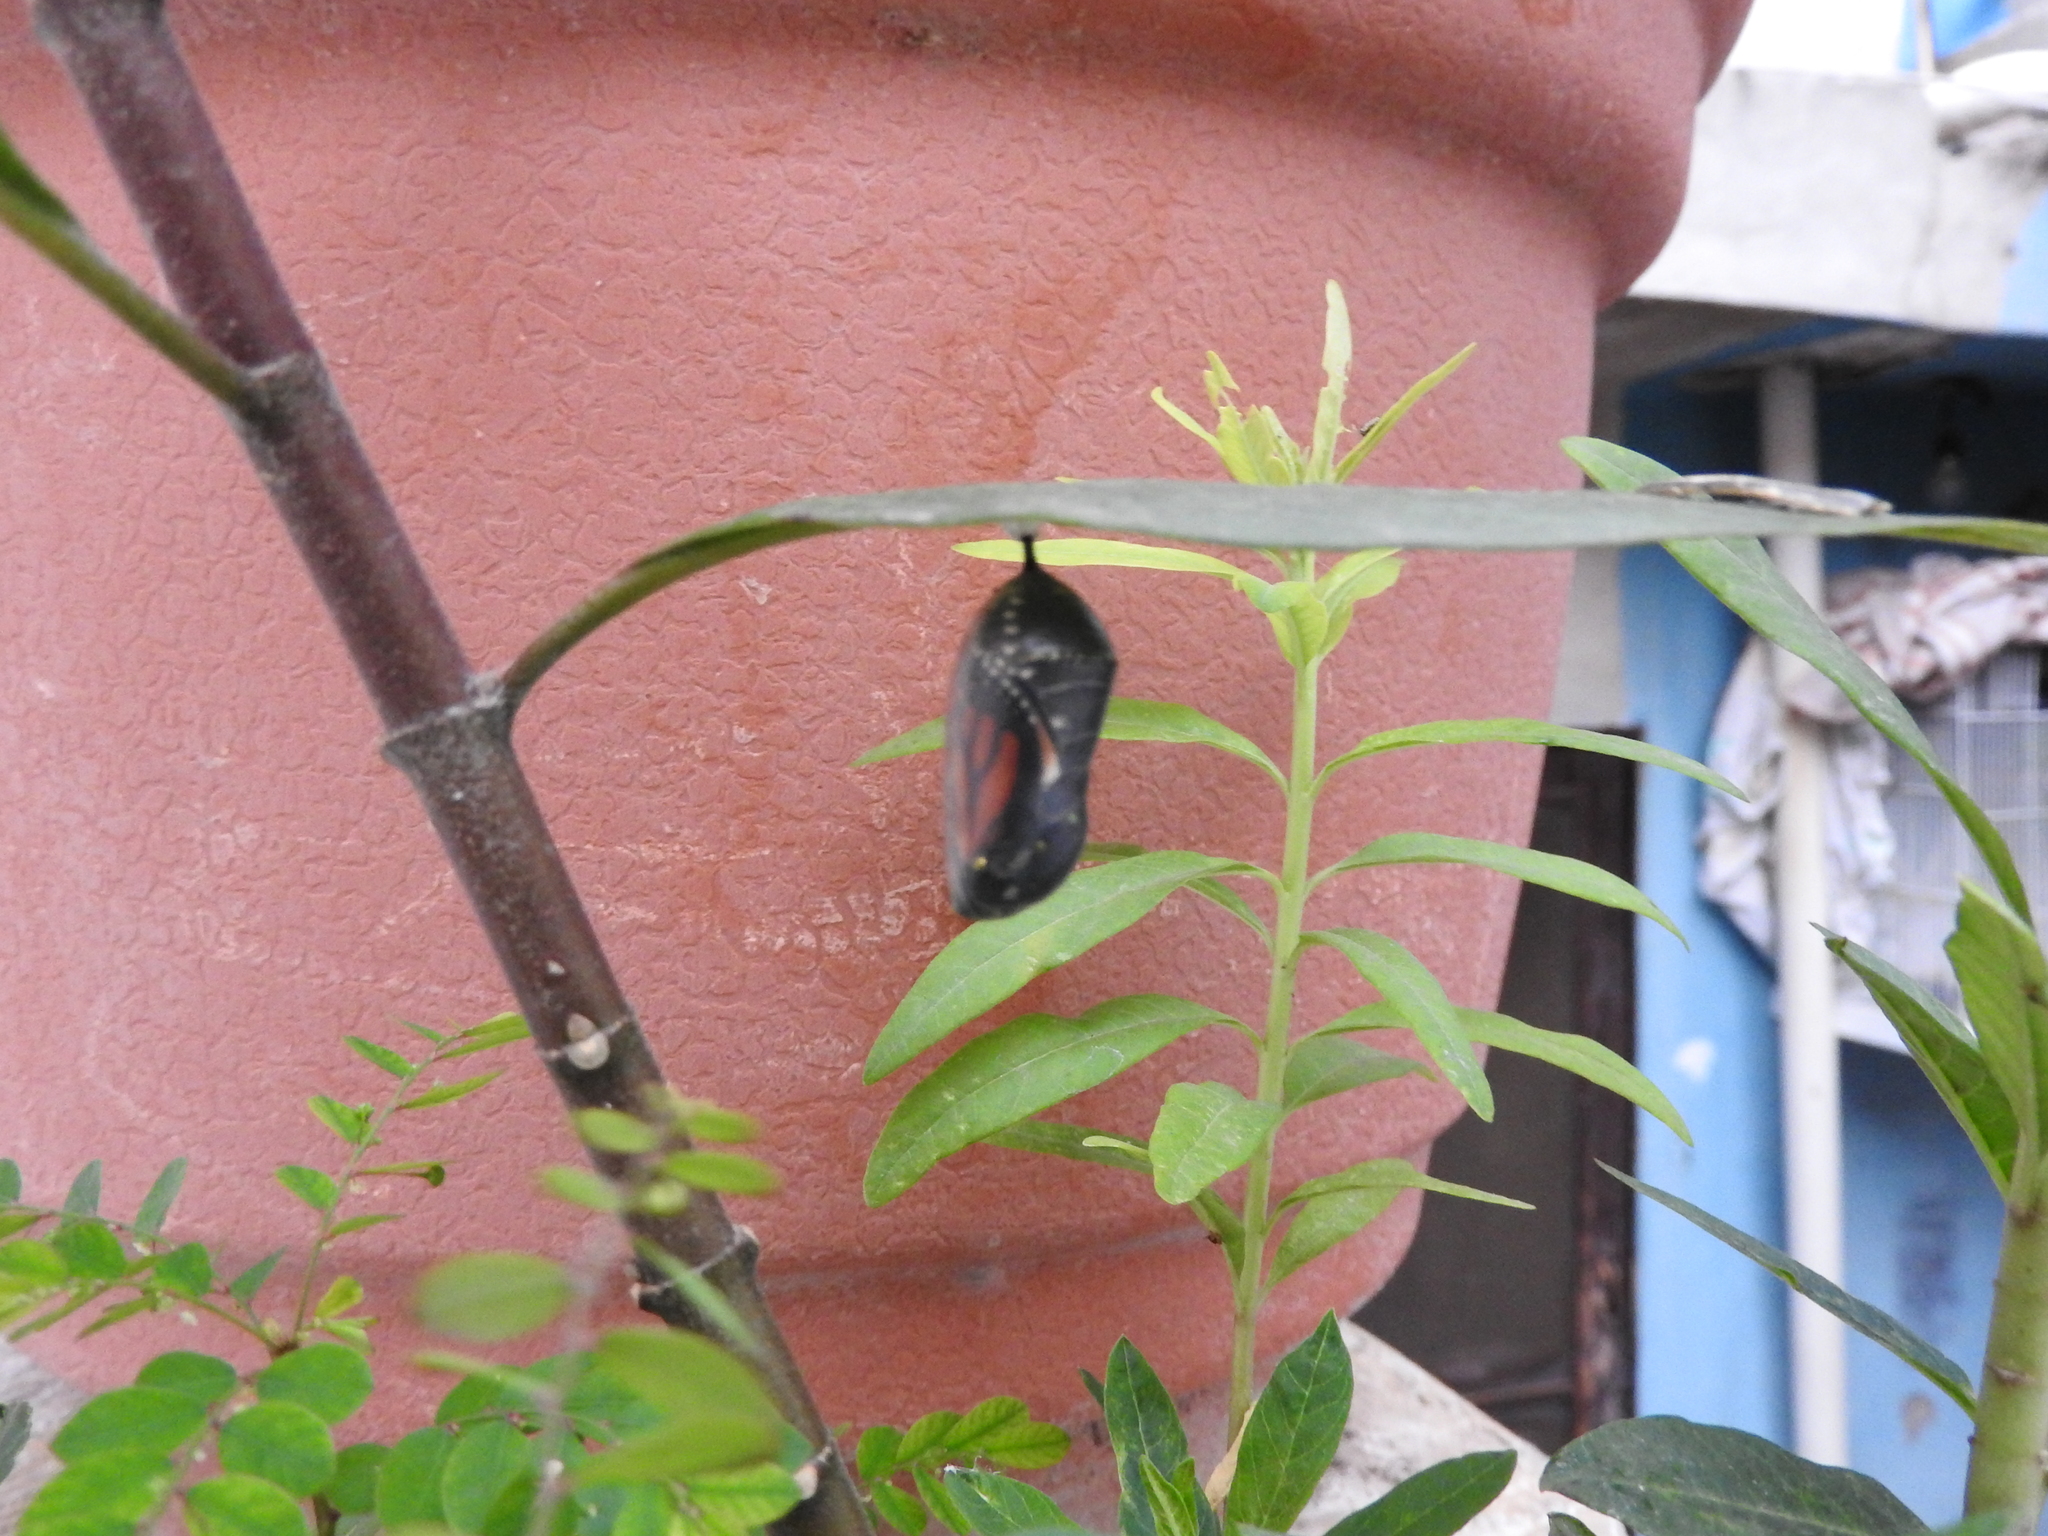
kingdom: Animalia
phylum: Arthropoda
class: Insecta
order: Lepidoptera
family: Nymphalidae
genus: Danaus
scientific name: Danaus plexippus
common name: Monarch
